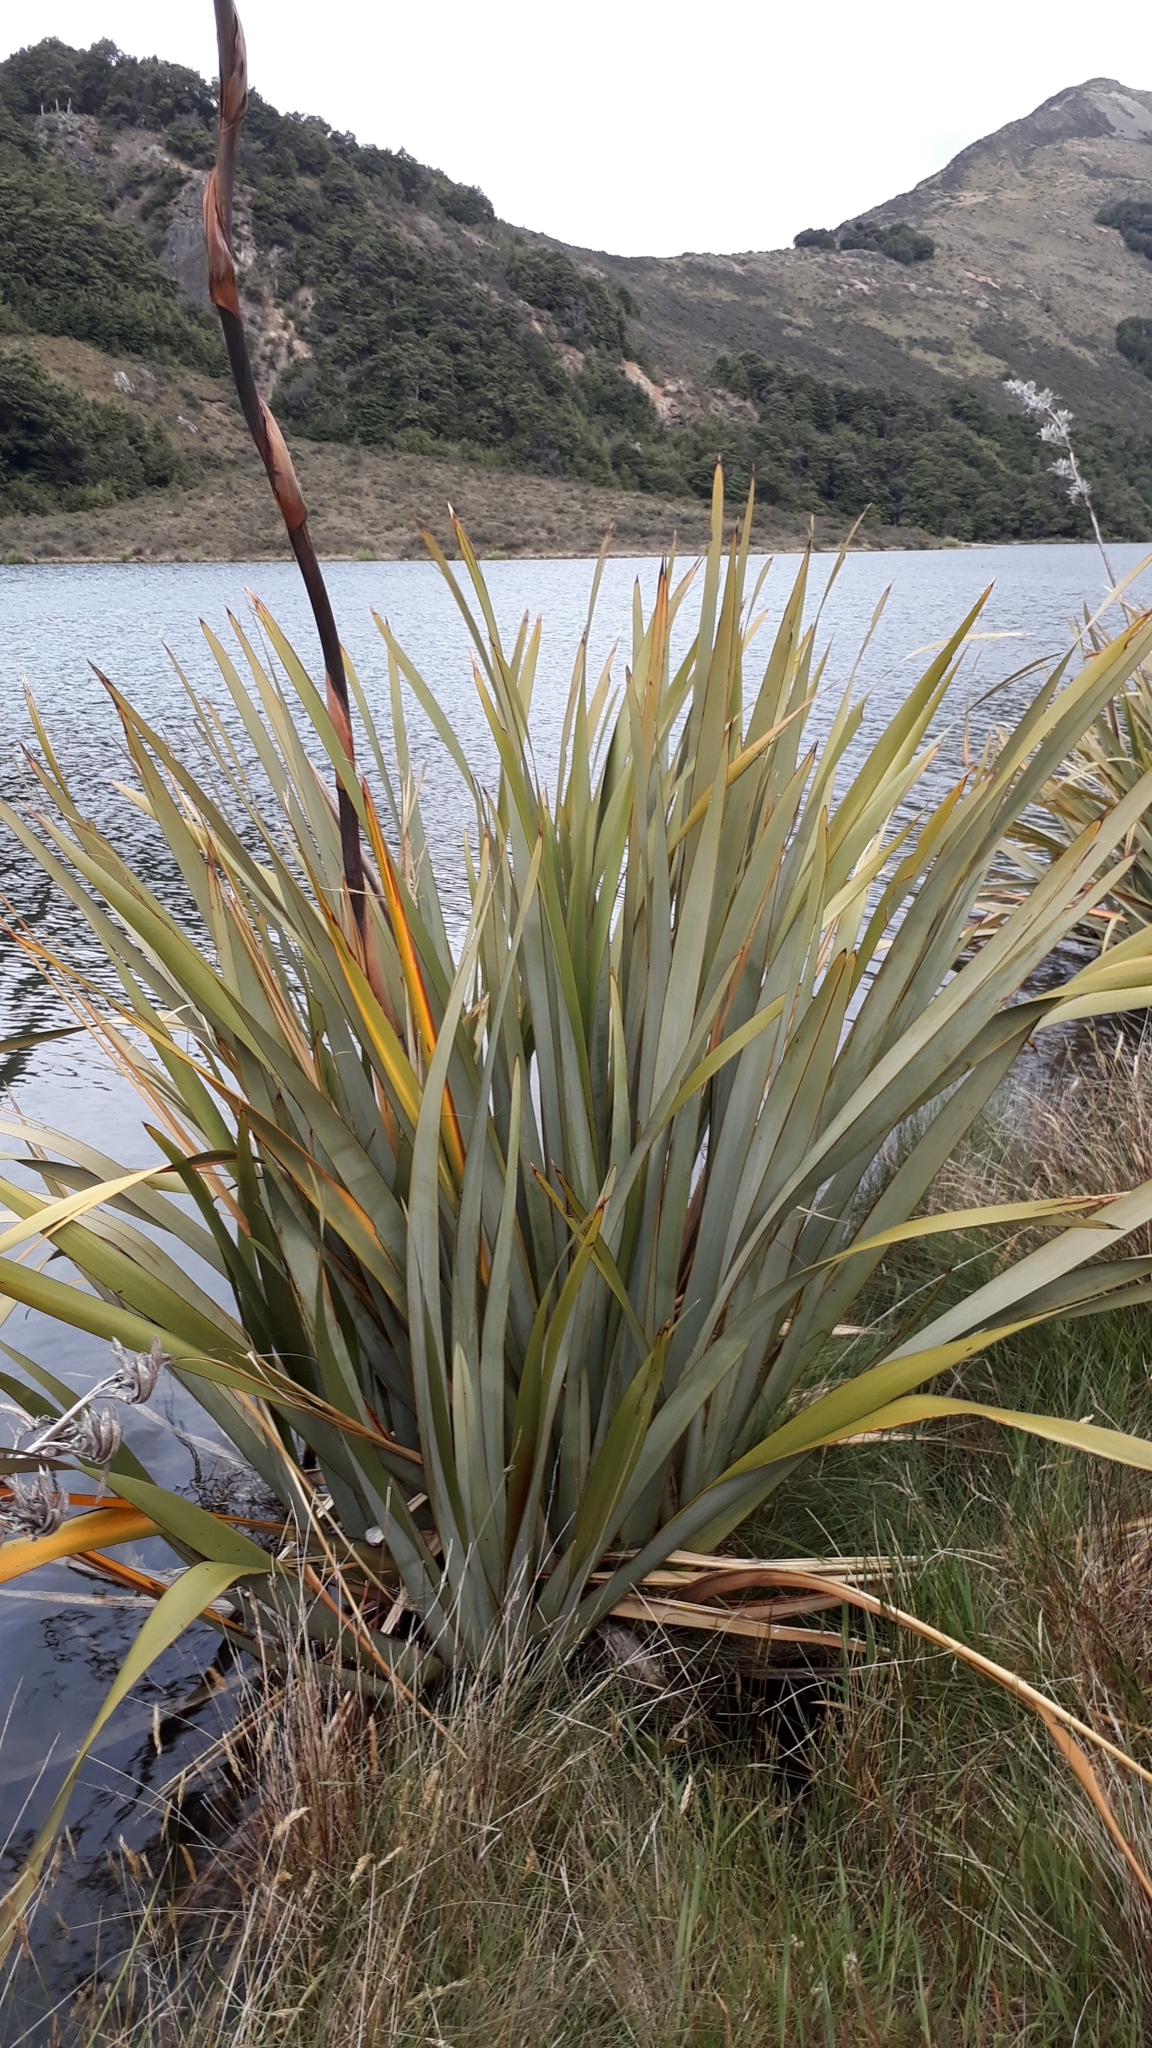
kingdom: Plantae
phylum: Tracheophyta
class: Liliopsida
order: Asparagales
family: Asphodelaceae
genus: Phormium
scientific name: Phormium tenax
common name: New zealand flax
